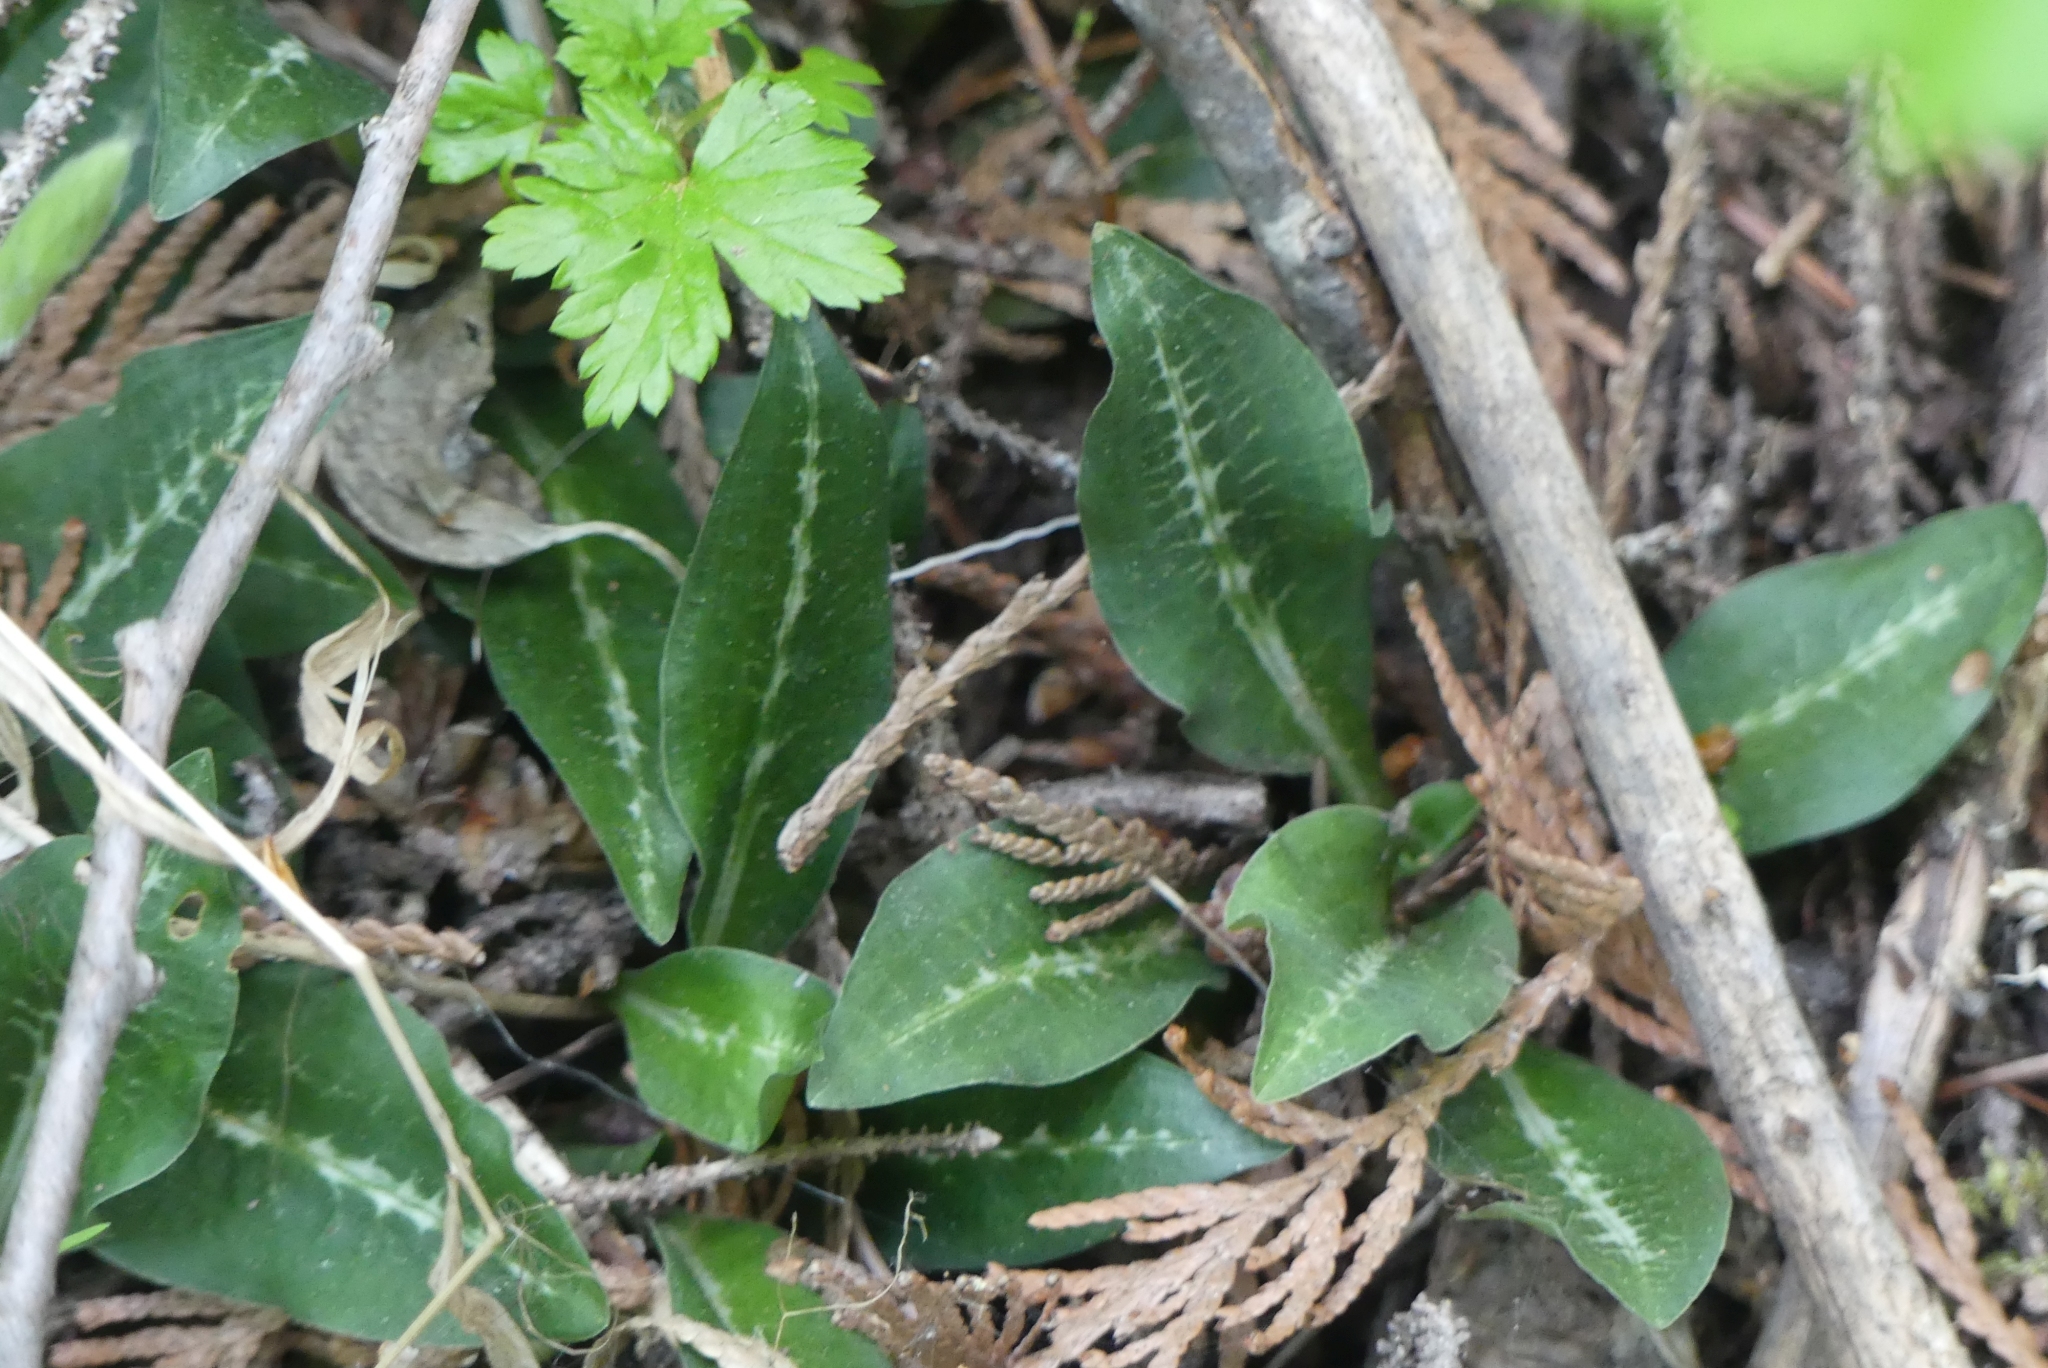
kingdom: Plantae
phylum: Tracheophyta
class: Liliopsida
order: Asparagales
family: Orchidaceae
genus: Goodyera
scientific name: Goodyera oblongifolia
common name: Giant rattlesnake-plantain
